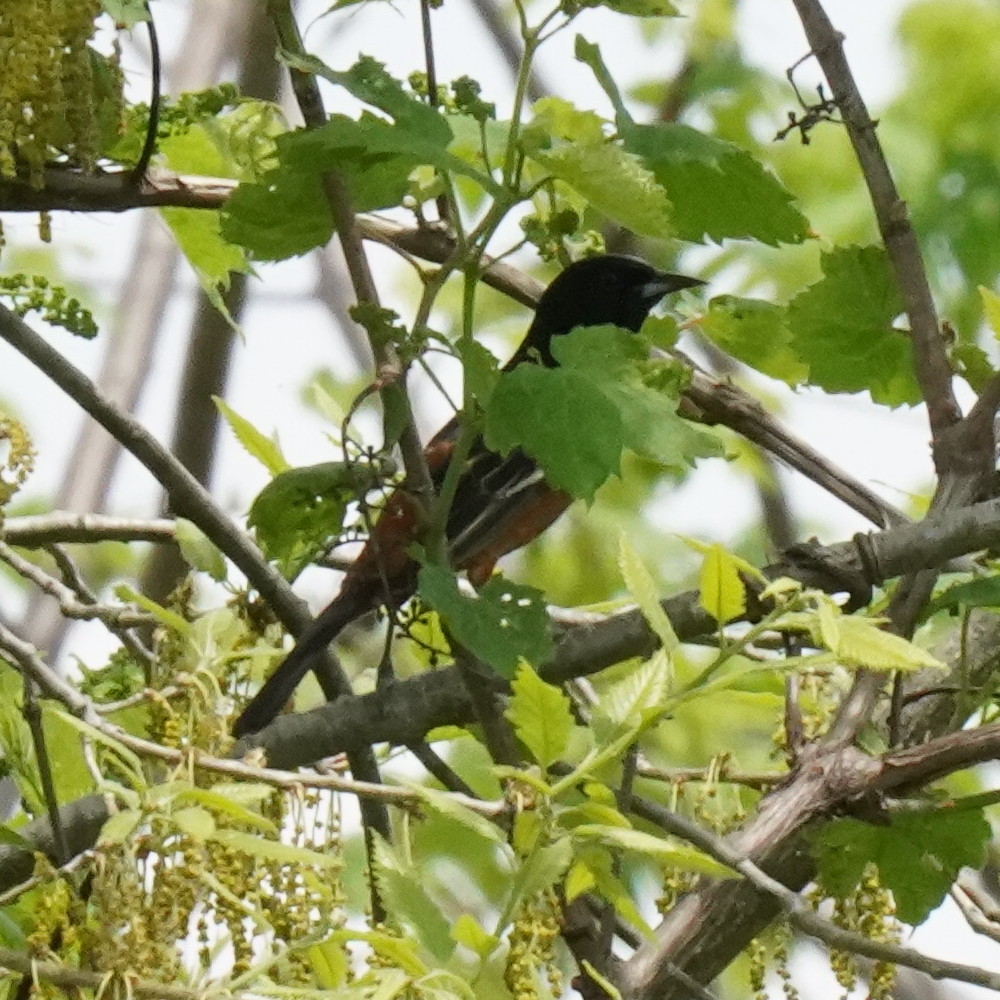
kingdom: Animalia
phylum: Chordata
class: Aves
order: Passeriformes
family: Icteridae
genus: Icterus
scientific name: Icterus spurius
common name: Orchard oriole
